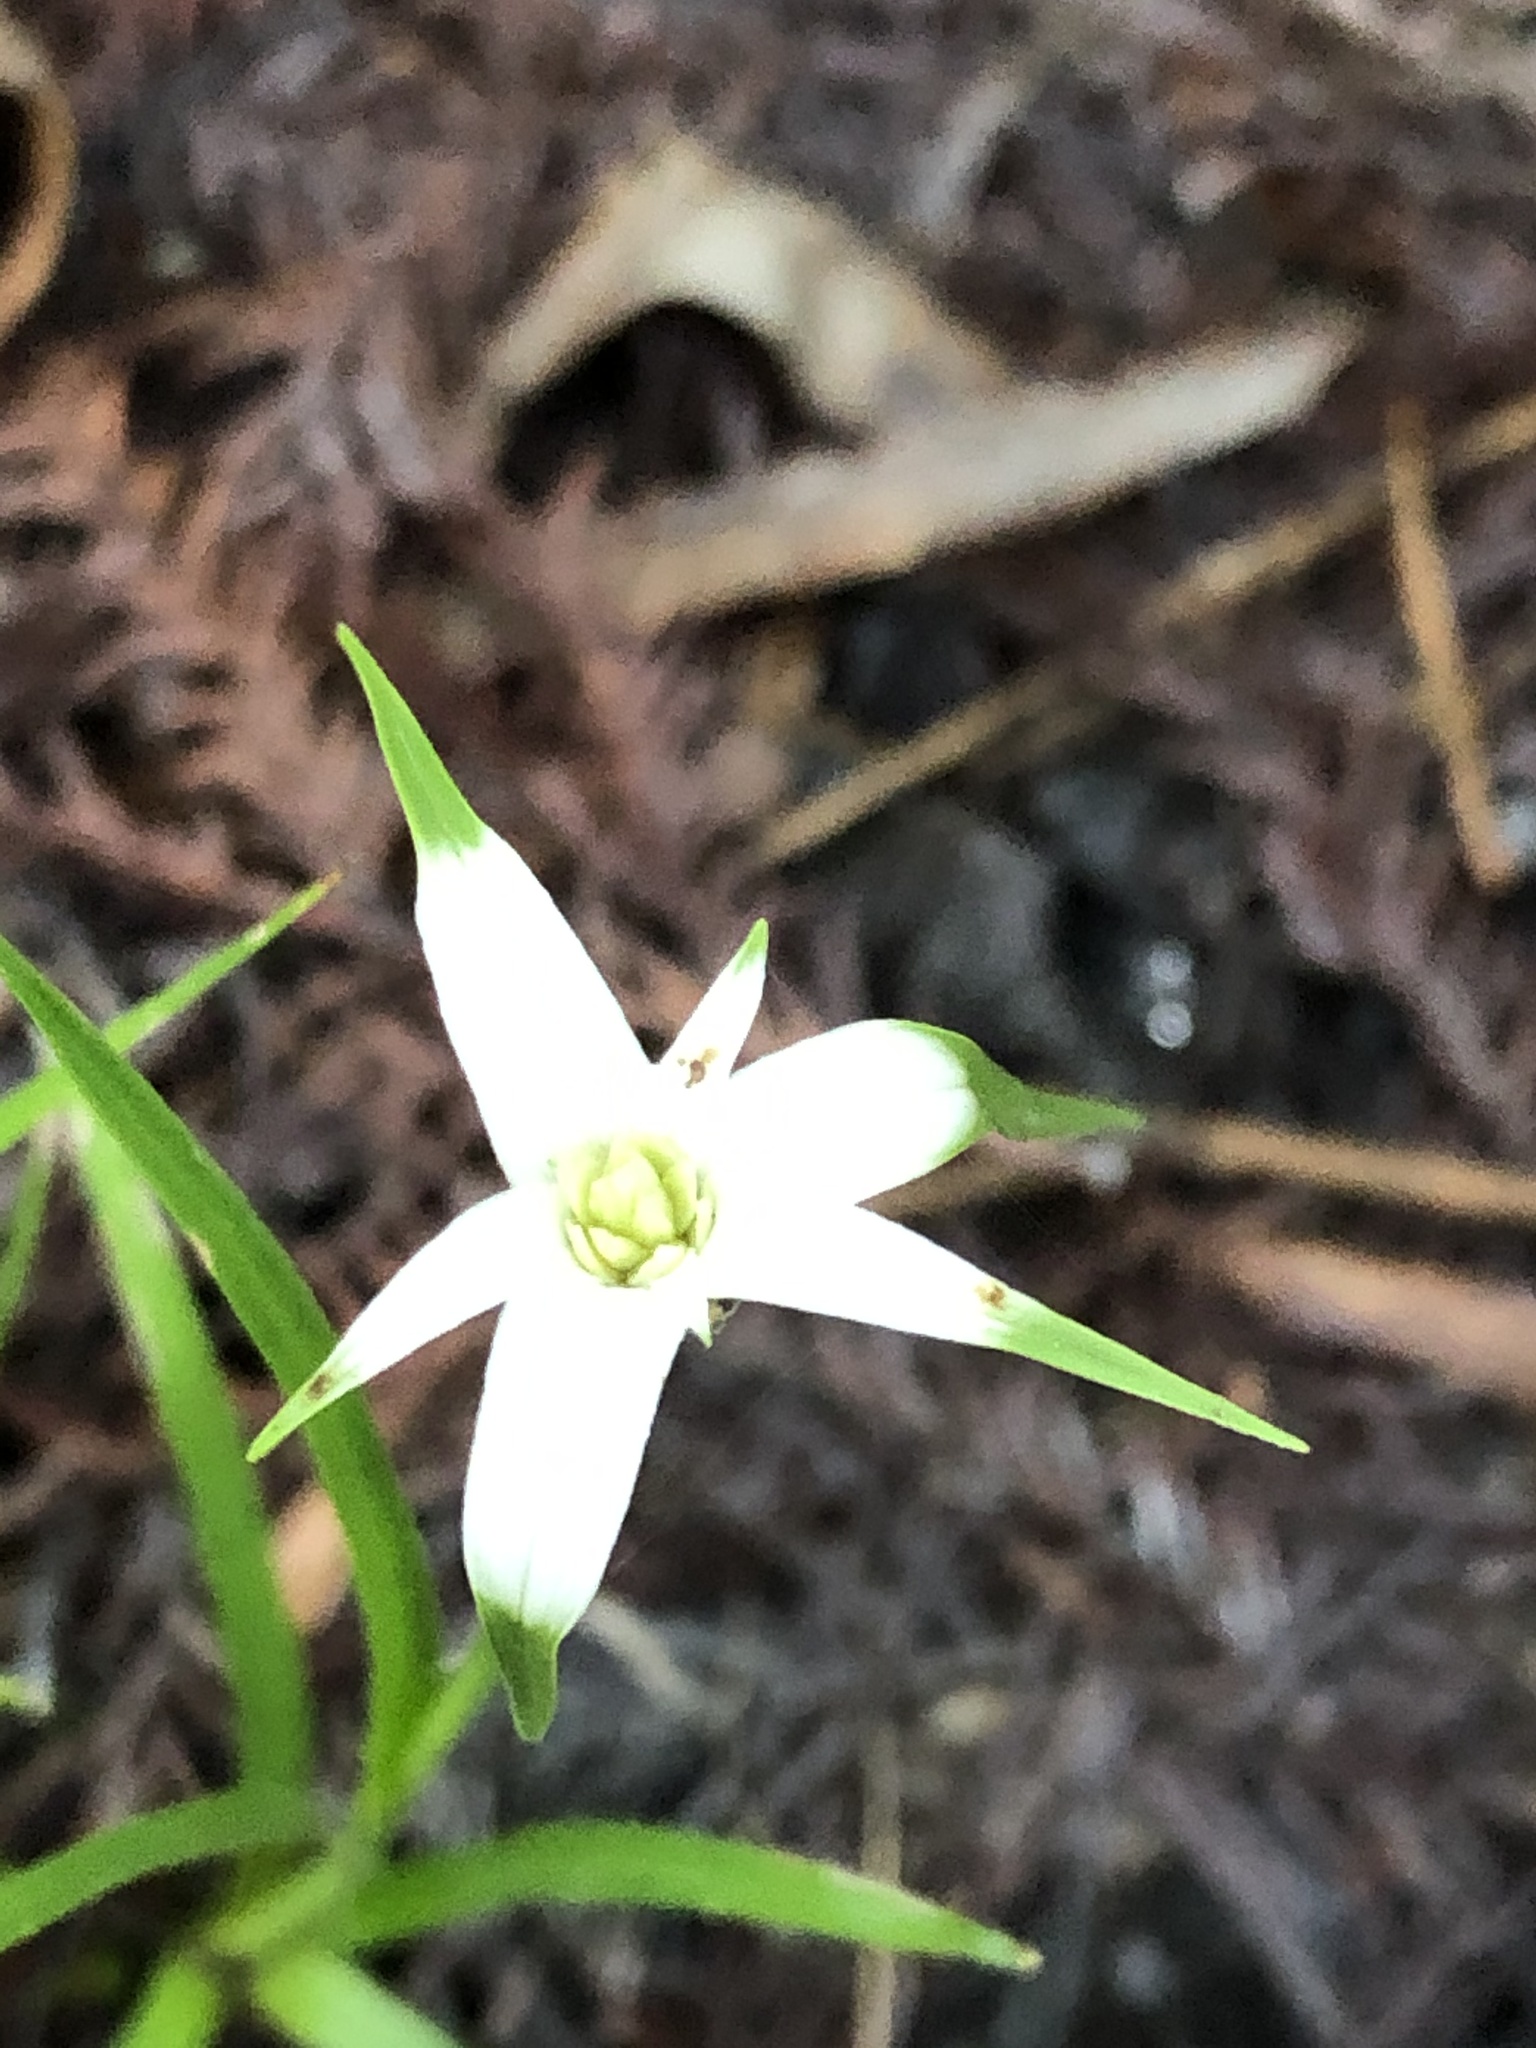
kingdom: Plantae
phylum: Tracheophyta
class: Liliopsida
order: Poales
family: Cyperaceae
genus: Rhynchospora
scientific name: Rhynchospora colorata
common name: Star sedge
